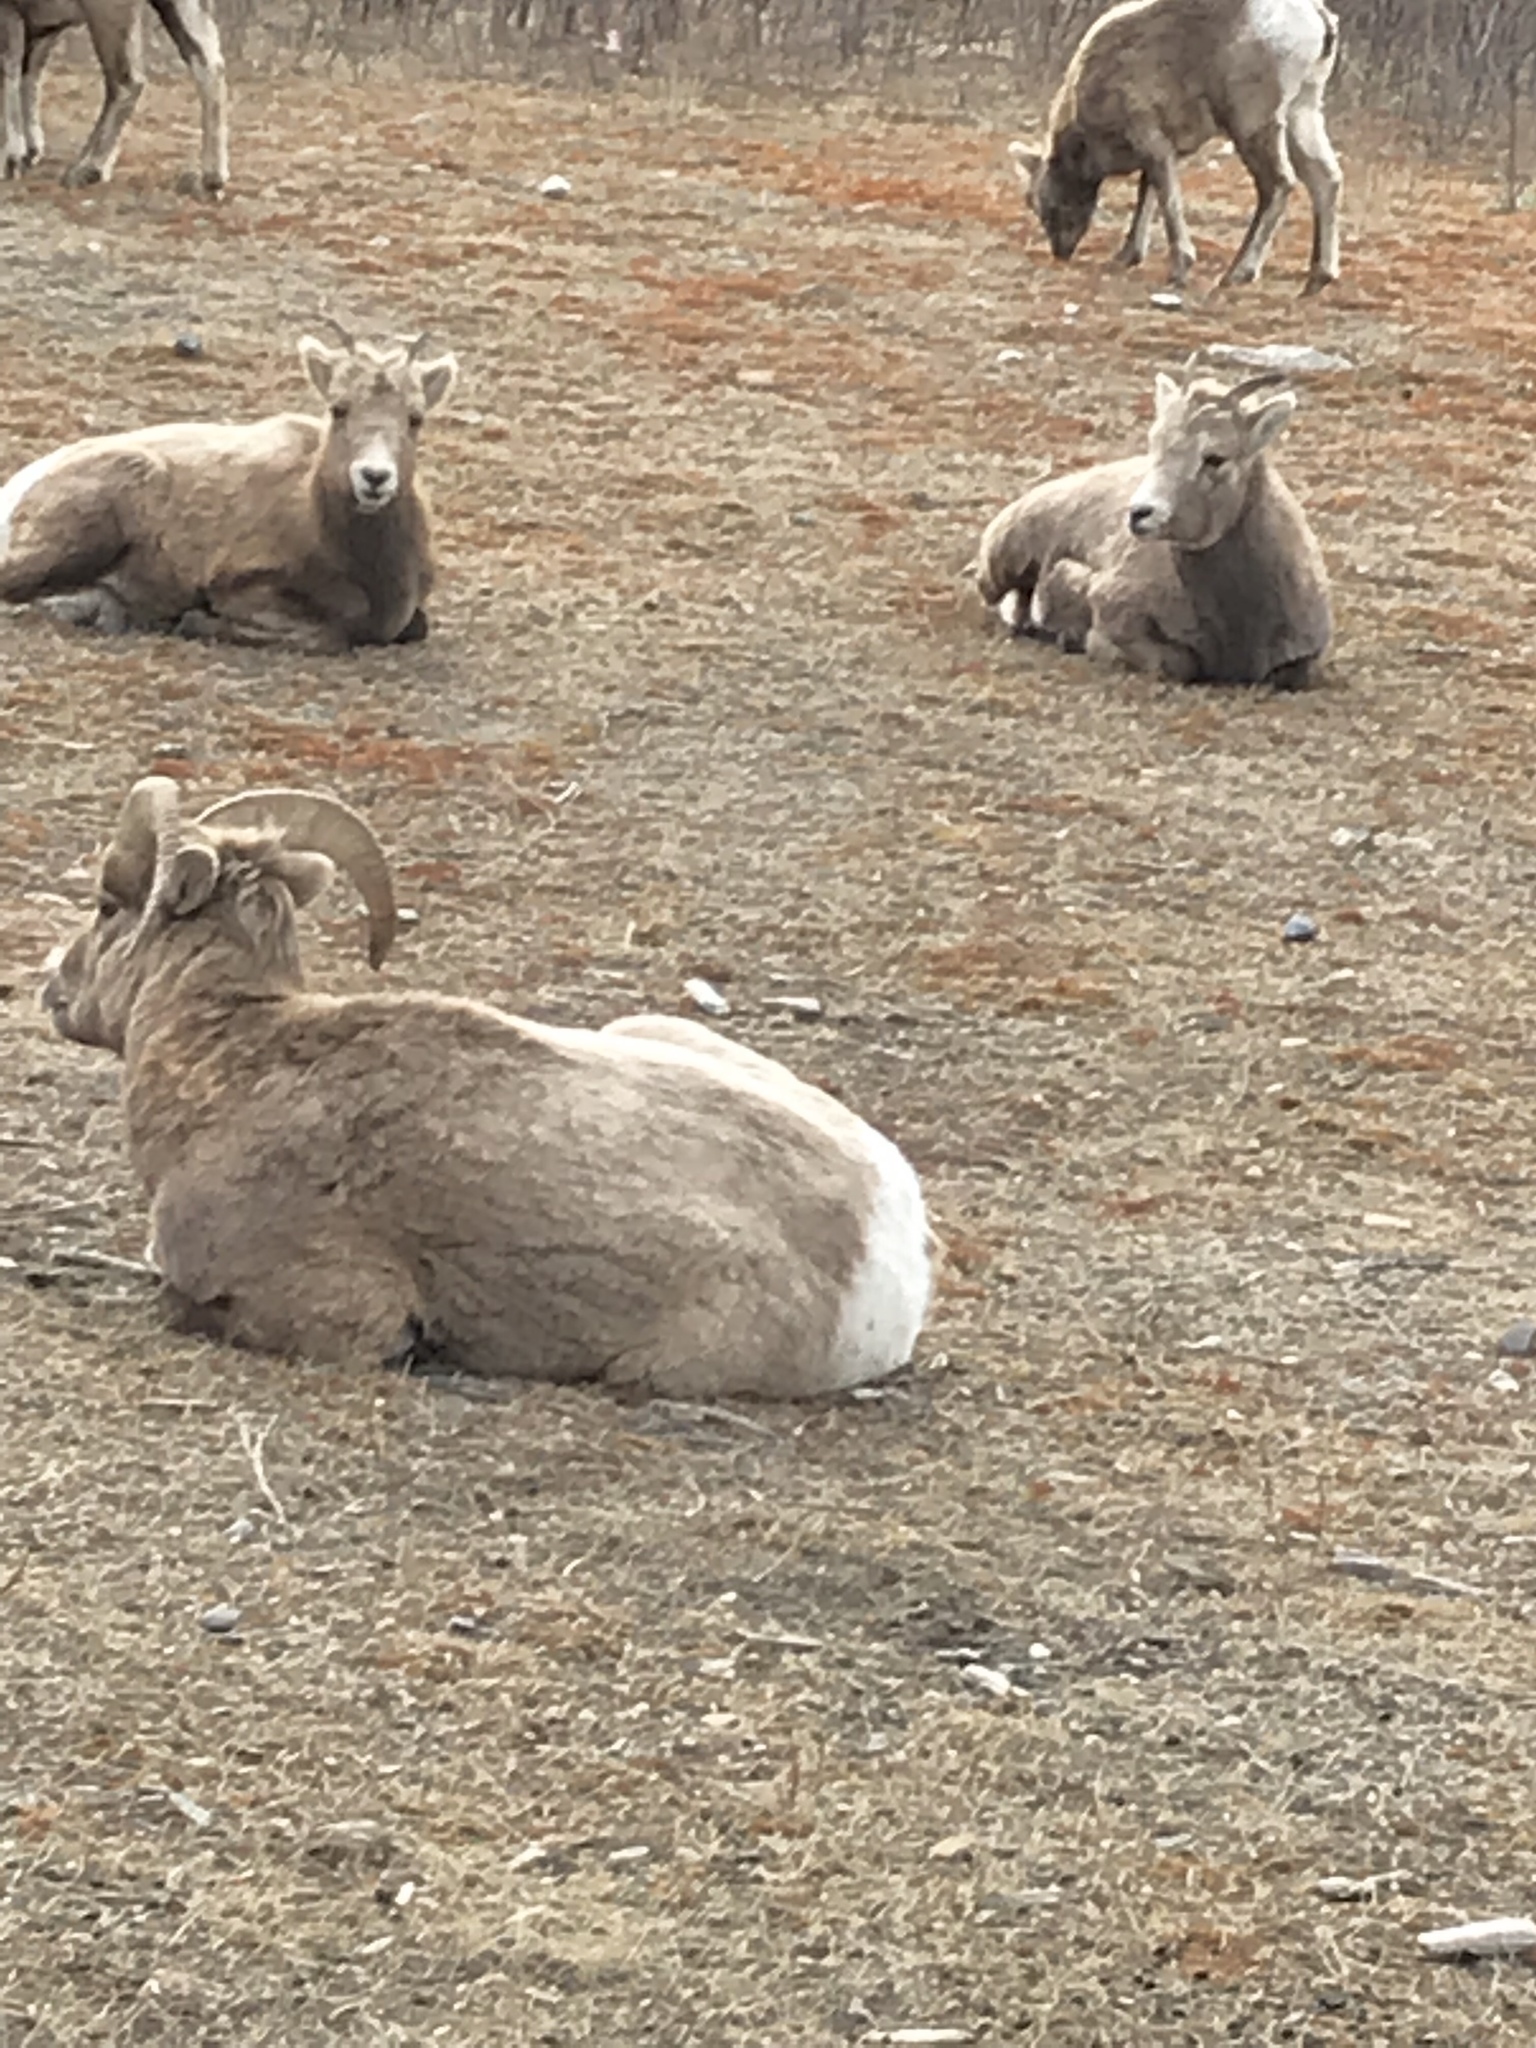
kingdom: Animalia
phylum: Chordata
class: Mammalia
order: Artiodactyla
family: Bovidae
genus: Ovis
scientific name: Ovis canadensis
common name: Bighorn sheep
